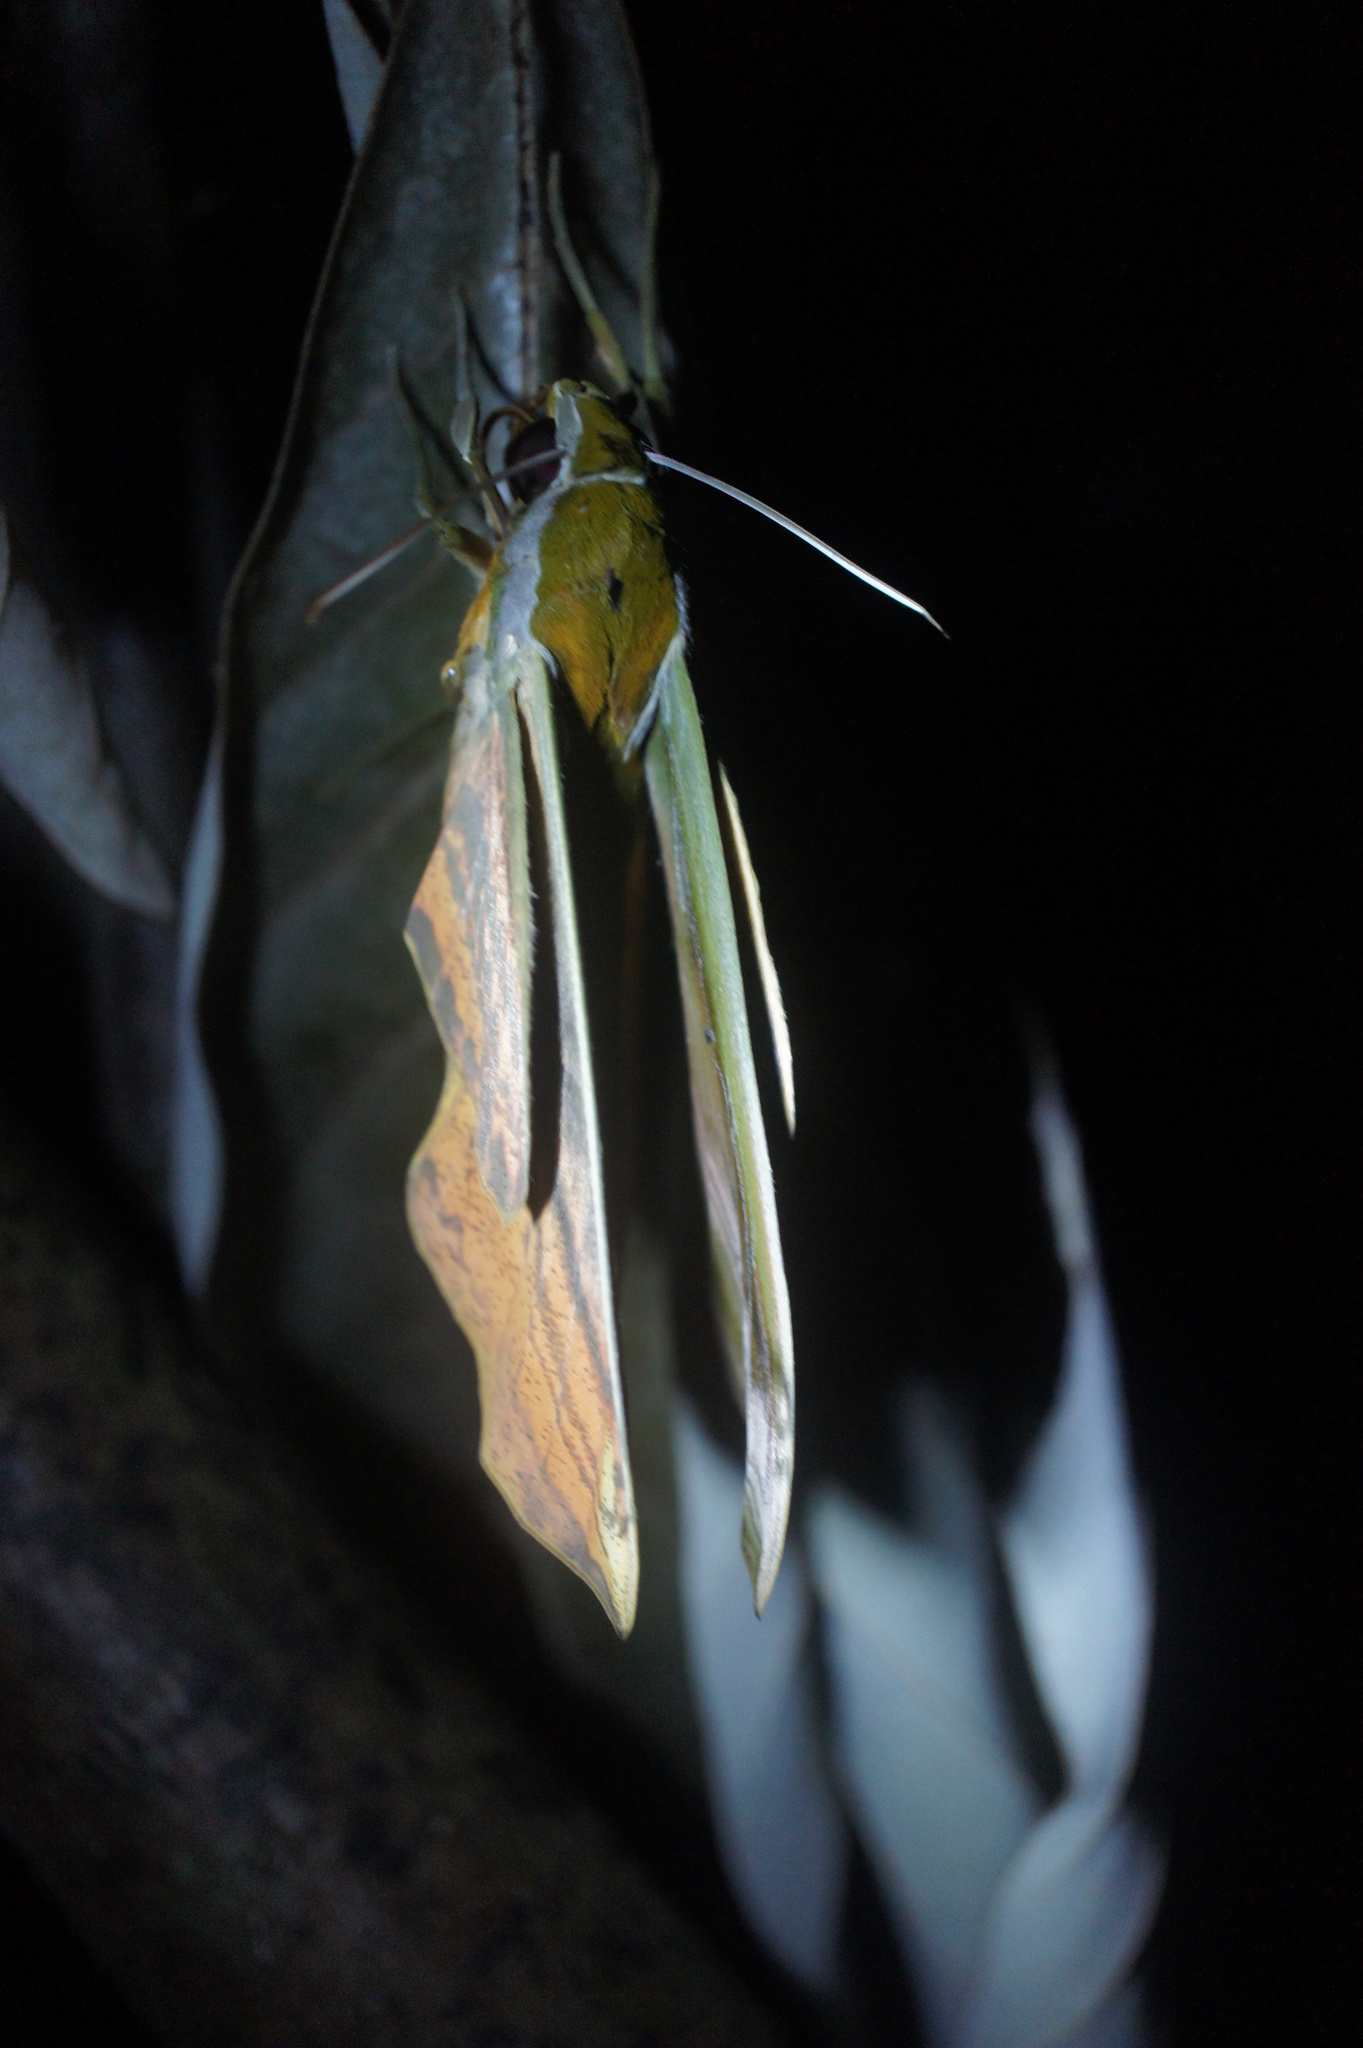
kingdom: Animalia
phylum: Arthropoda
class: Insecta
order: Lepidoptera
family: Sphingidae
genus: Theretra
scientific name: Theretra nessus
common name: Yam hawk moth
